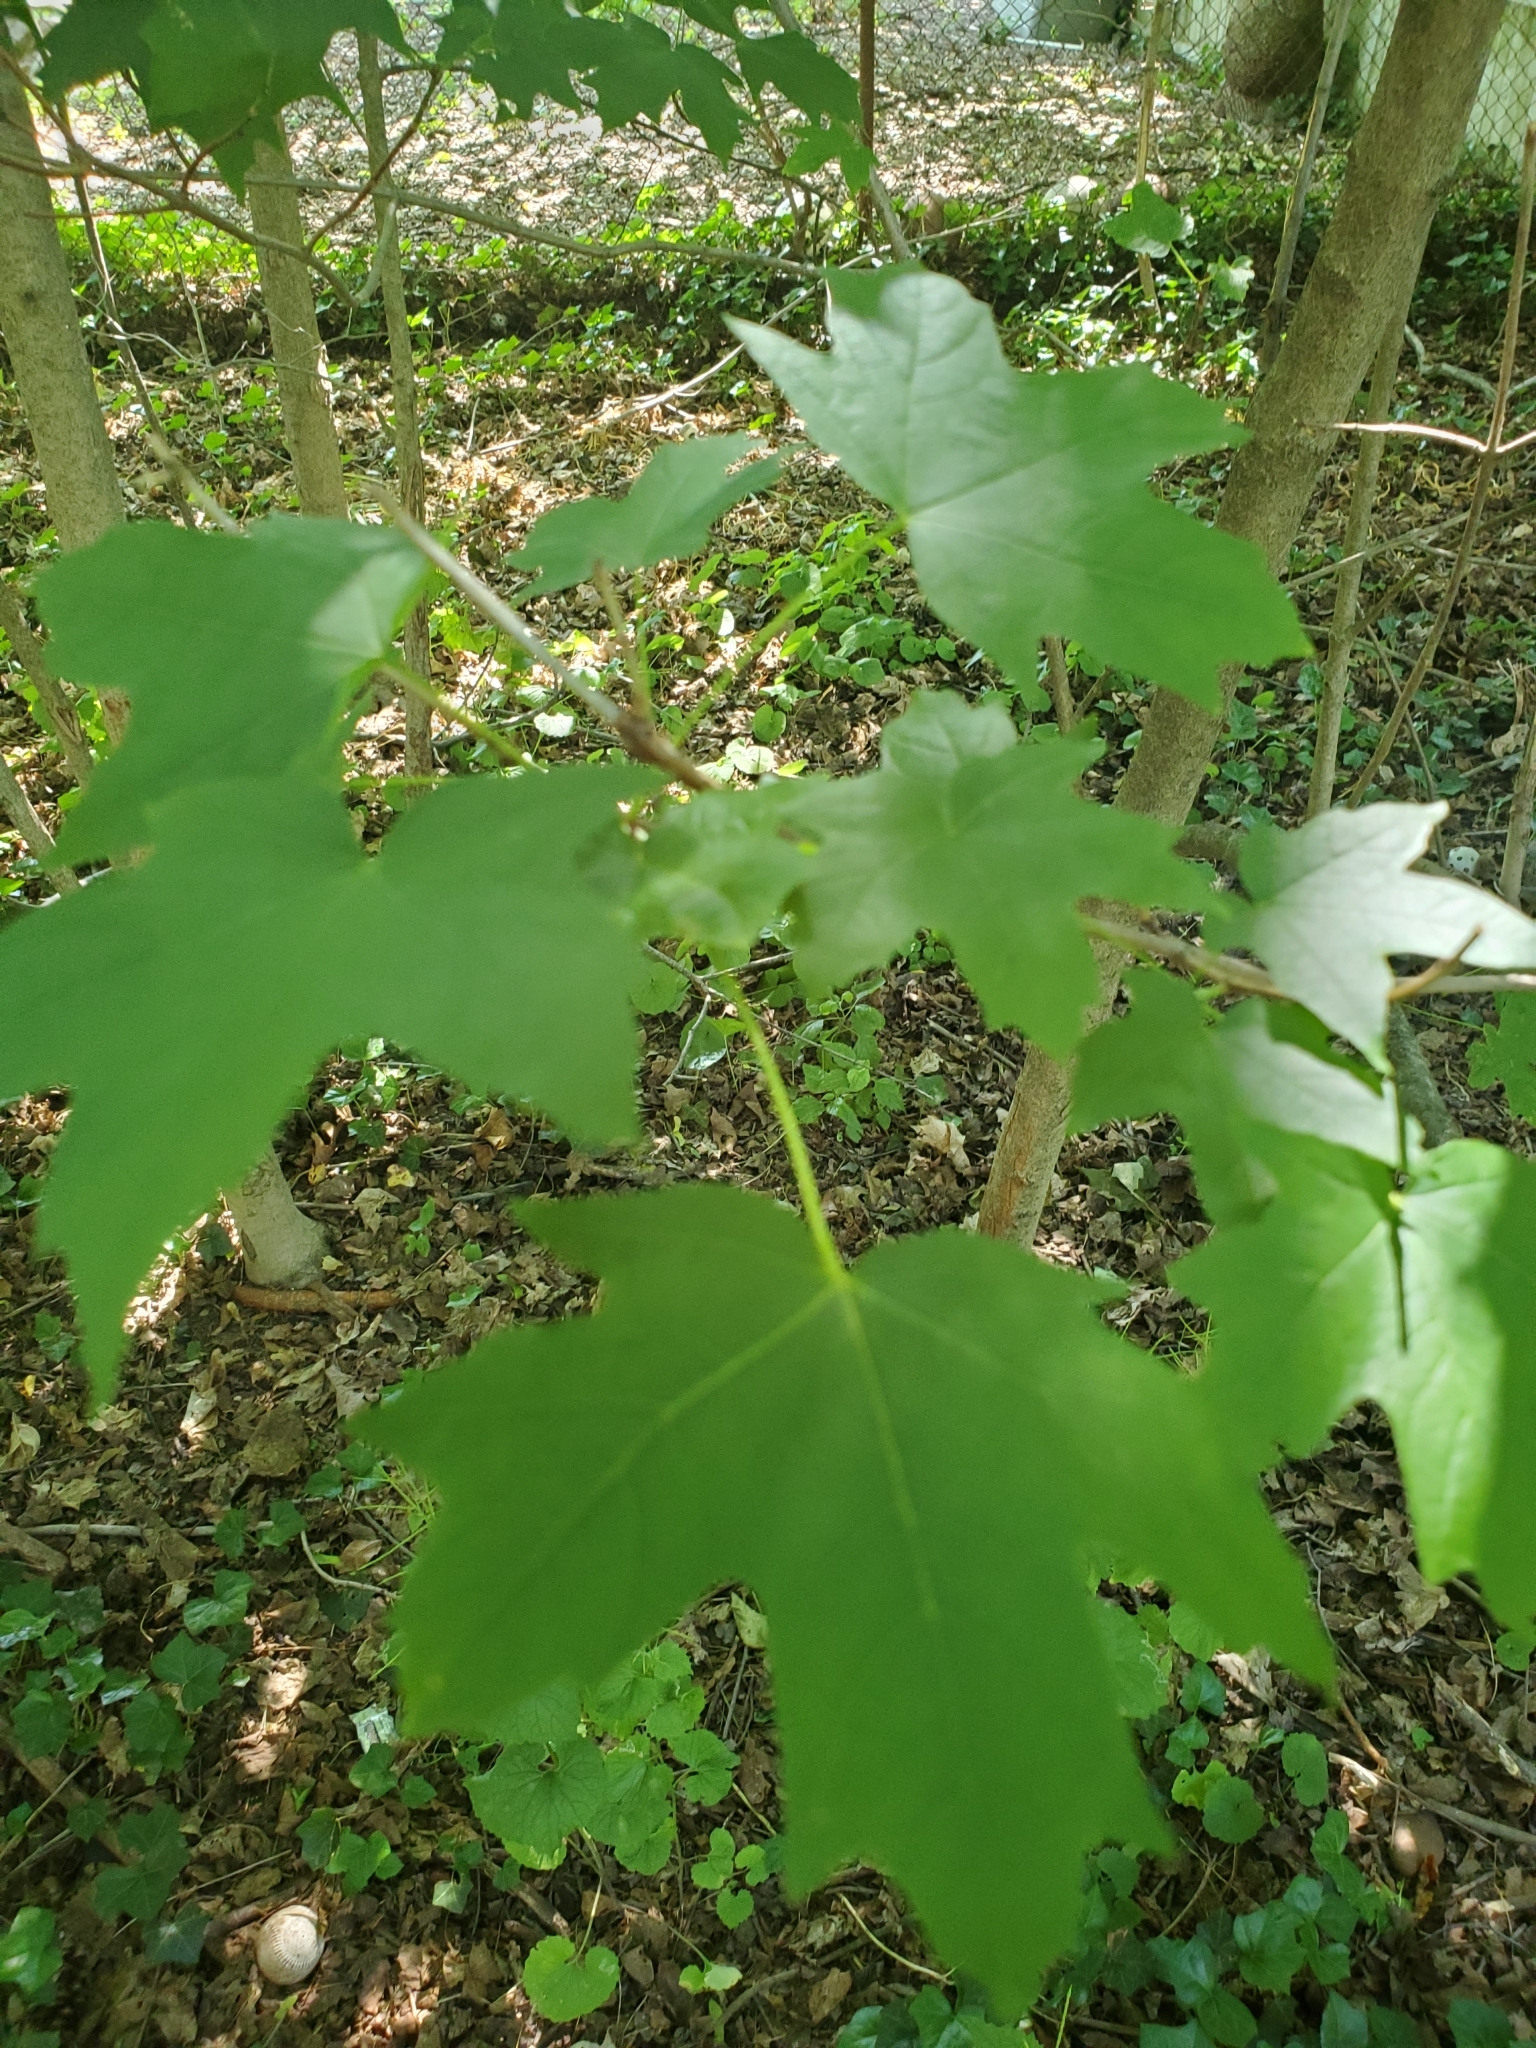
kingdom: Plantae
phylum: Tracheophyta
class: Magnoliopsida
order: Sapindales
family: Sapindaceae
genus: Acer
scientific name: Acer saccharum
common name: Sugar maple
